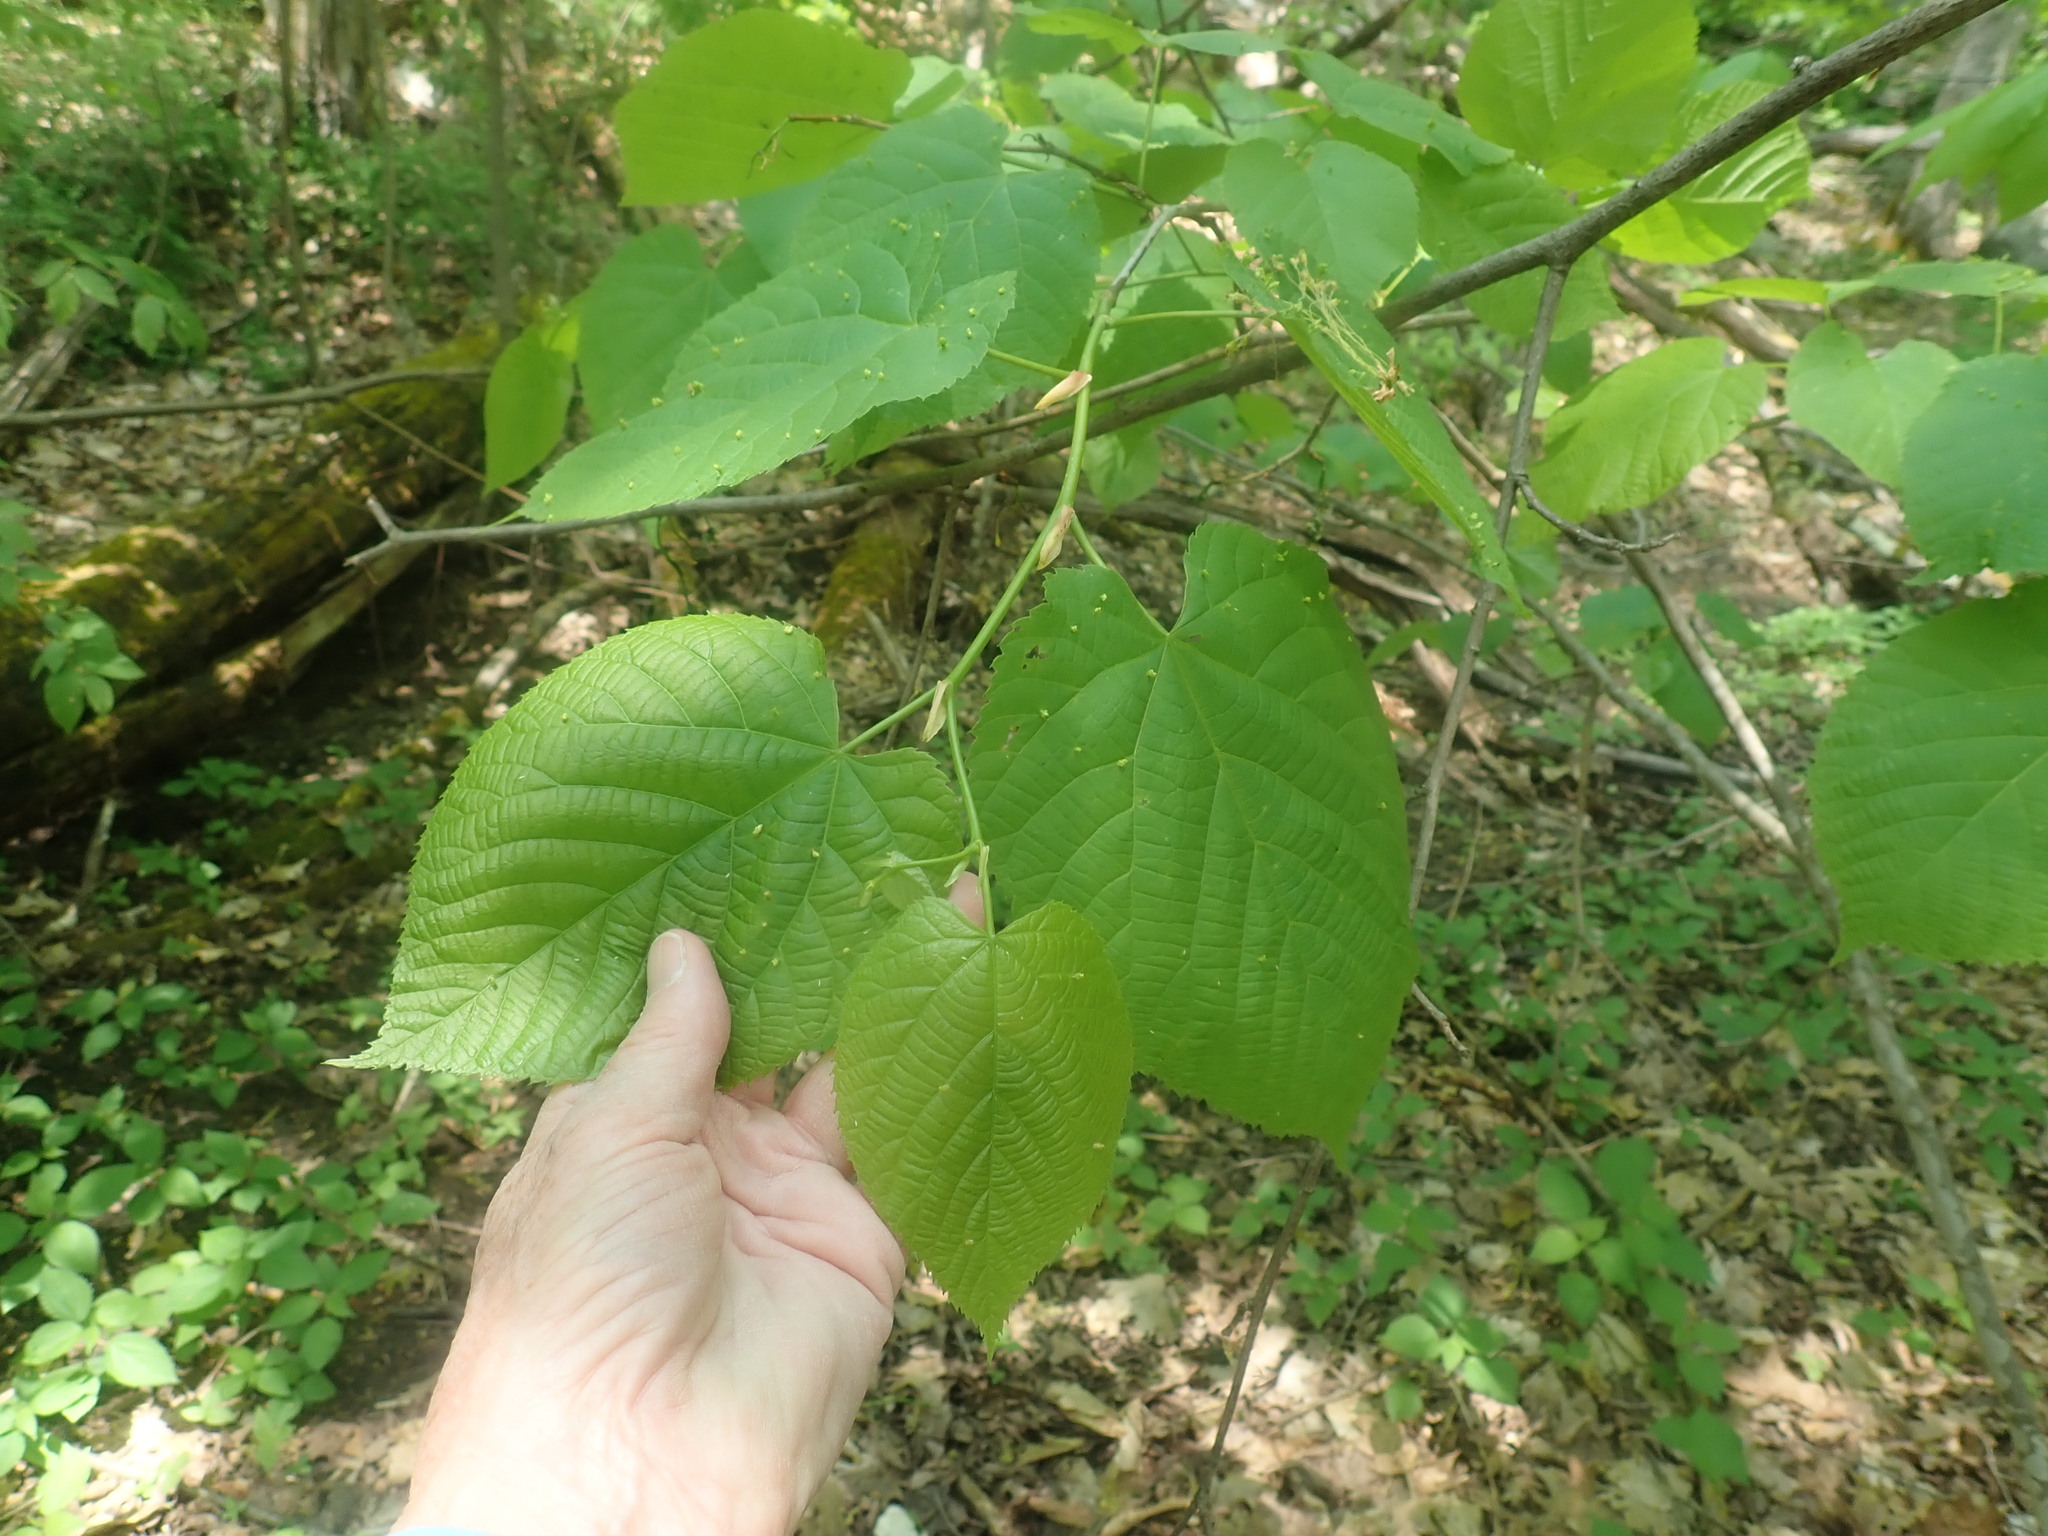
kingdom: Plantae
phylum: Tracheophyta
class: Magnoliopsida
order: Malvales
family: Malvaceae
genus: Tilia
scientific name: Tilia americana
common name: Basswood
